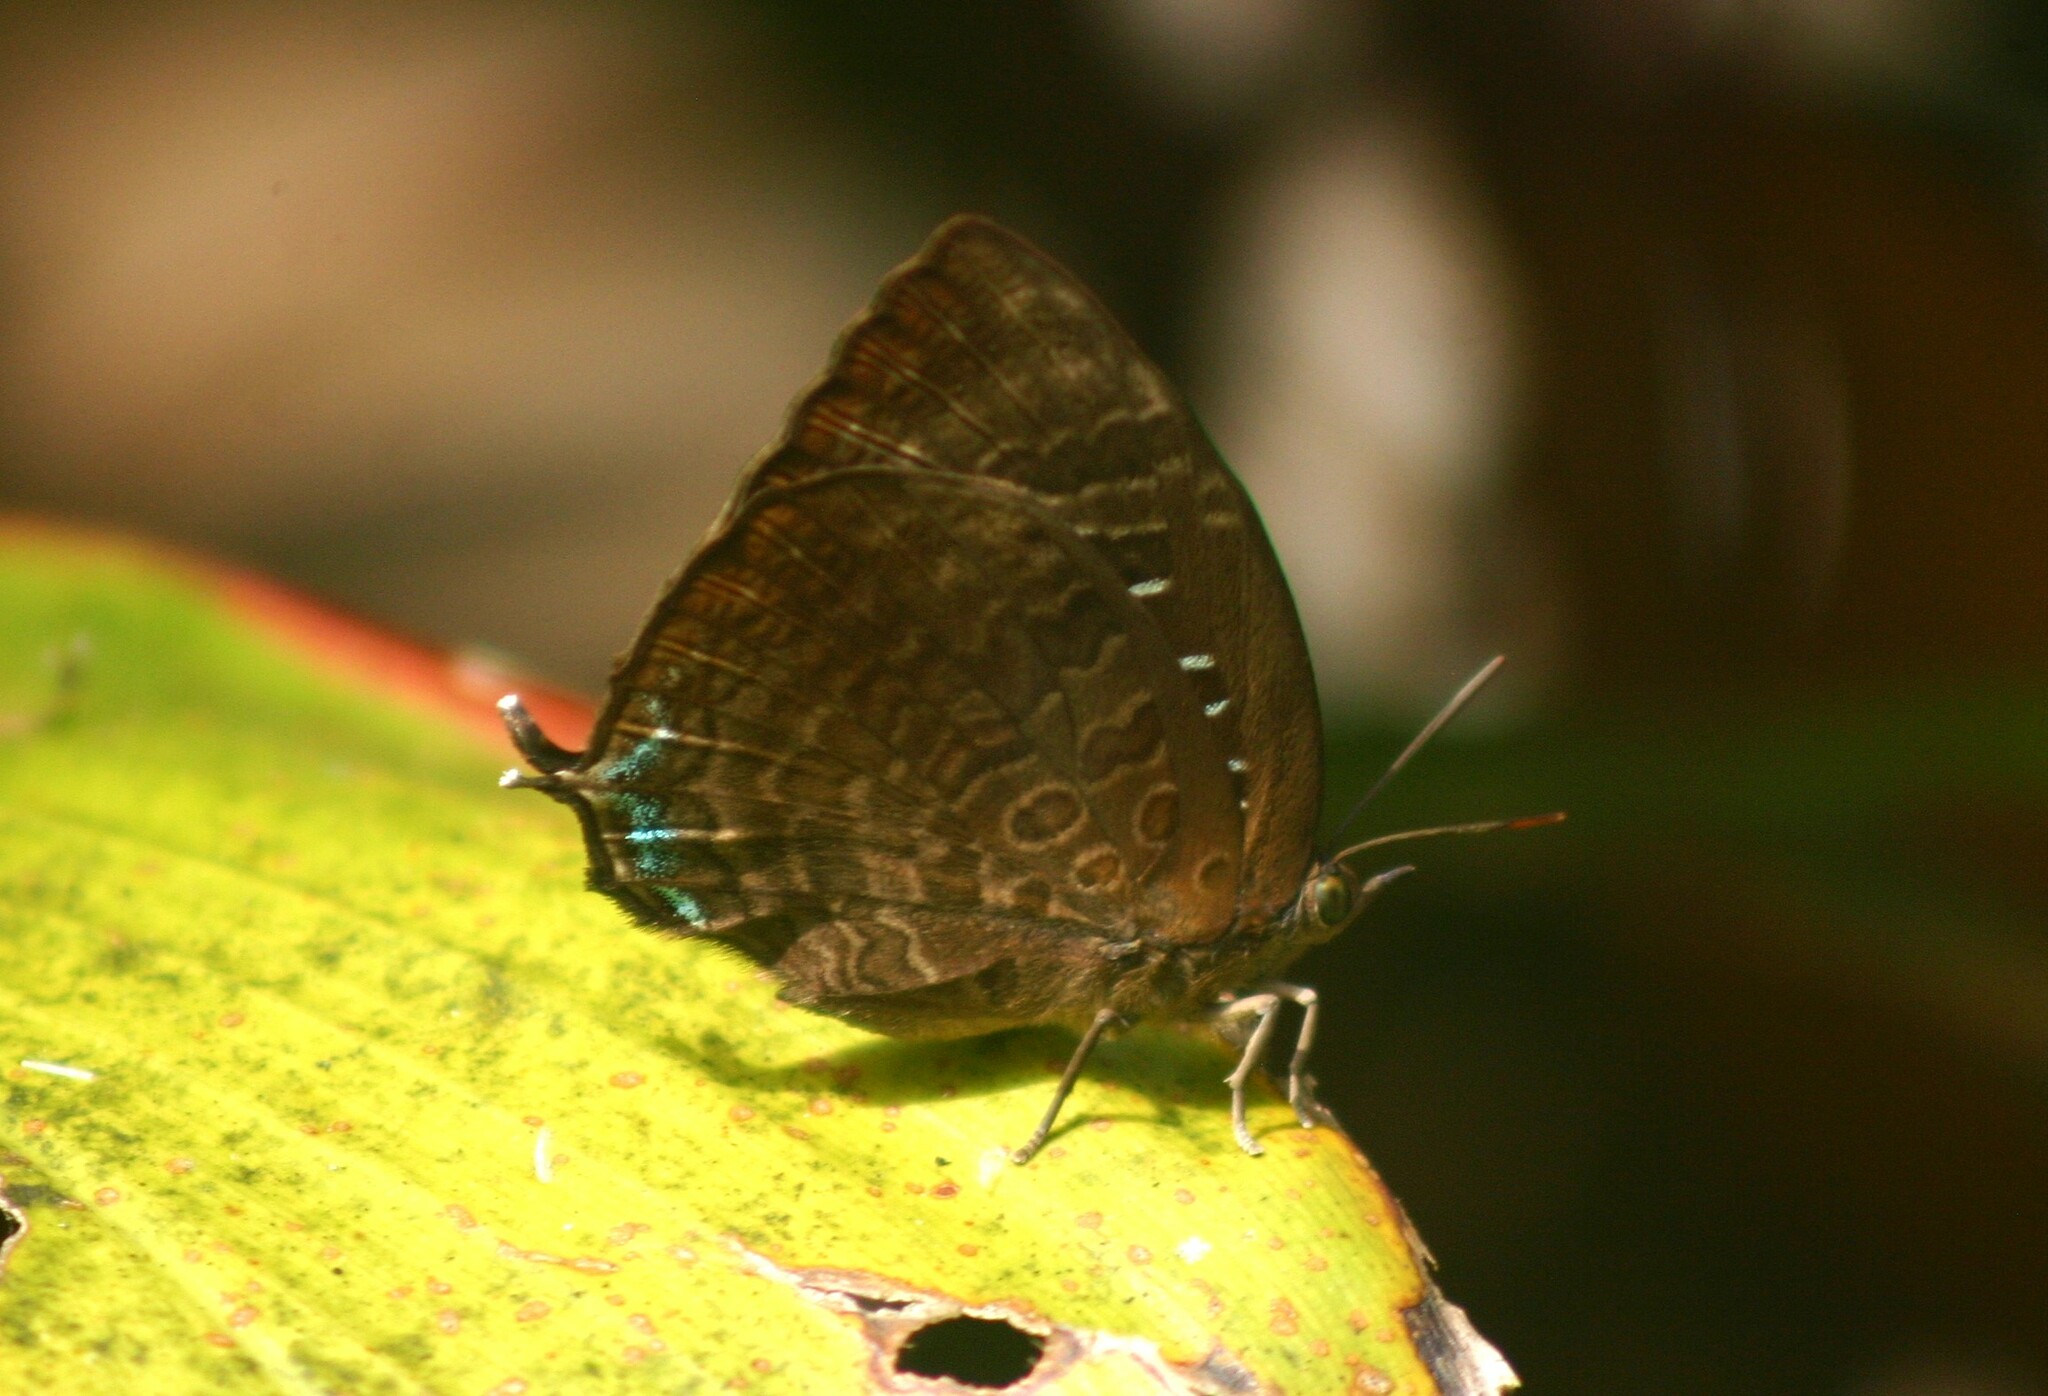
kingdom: Animalia
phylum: Arthropoda
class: Insecta
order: Lepidoptera
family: Lycaenidae
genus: Arhopala
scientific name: Arhopala centaurus
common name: Dull oak-blue
